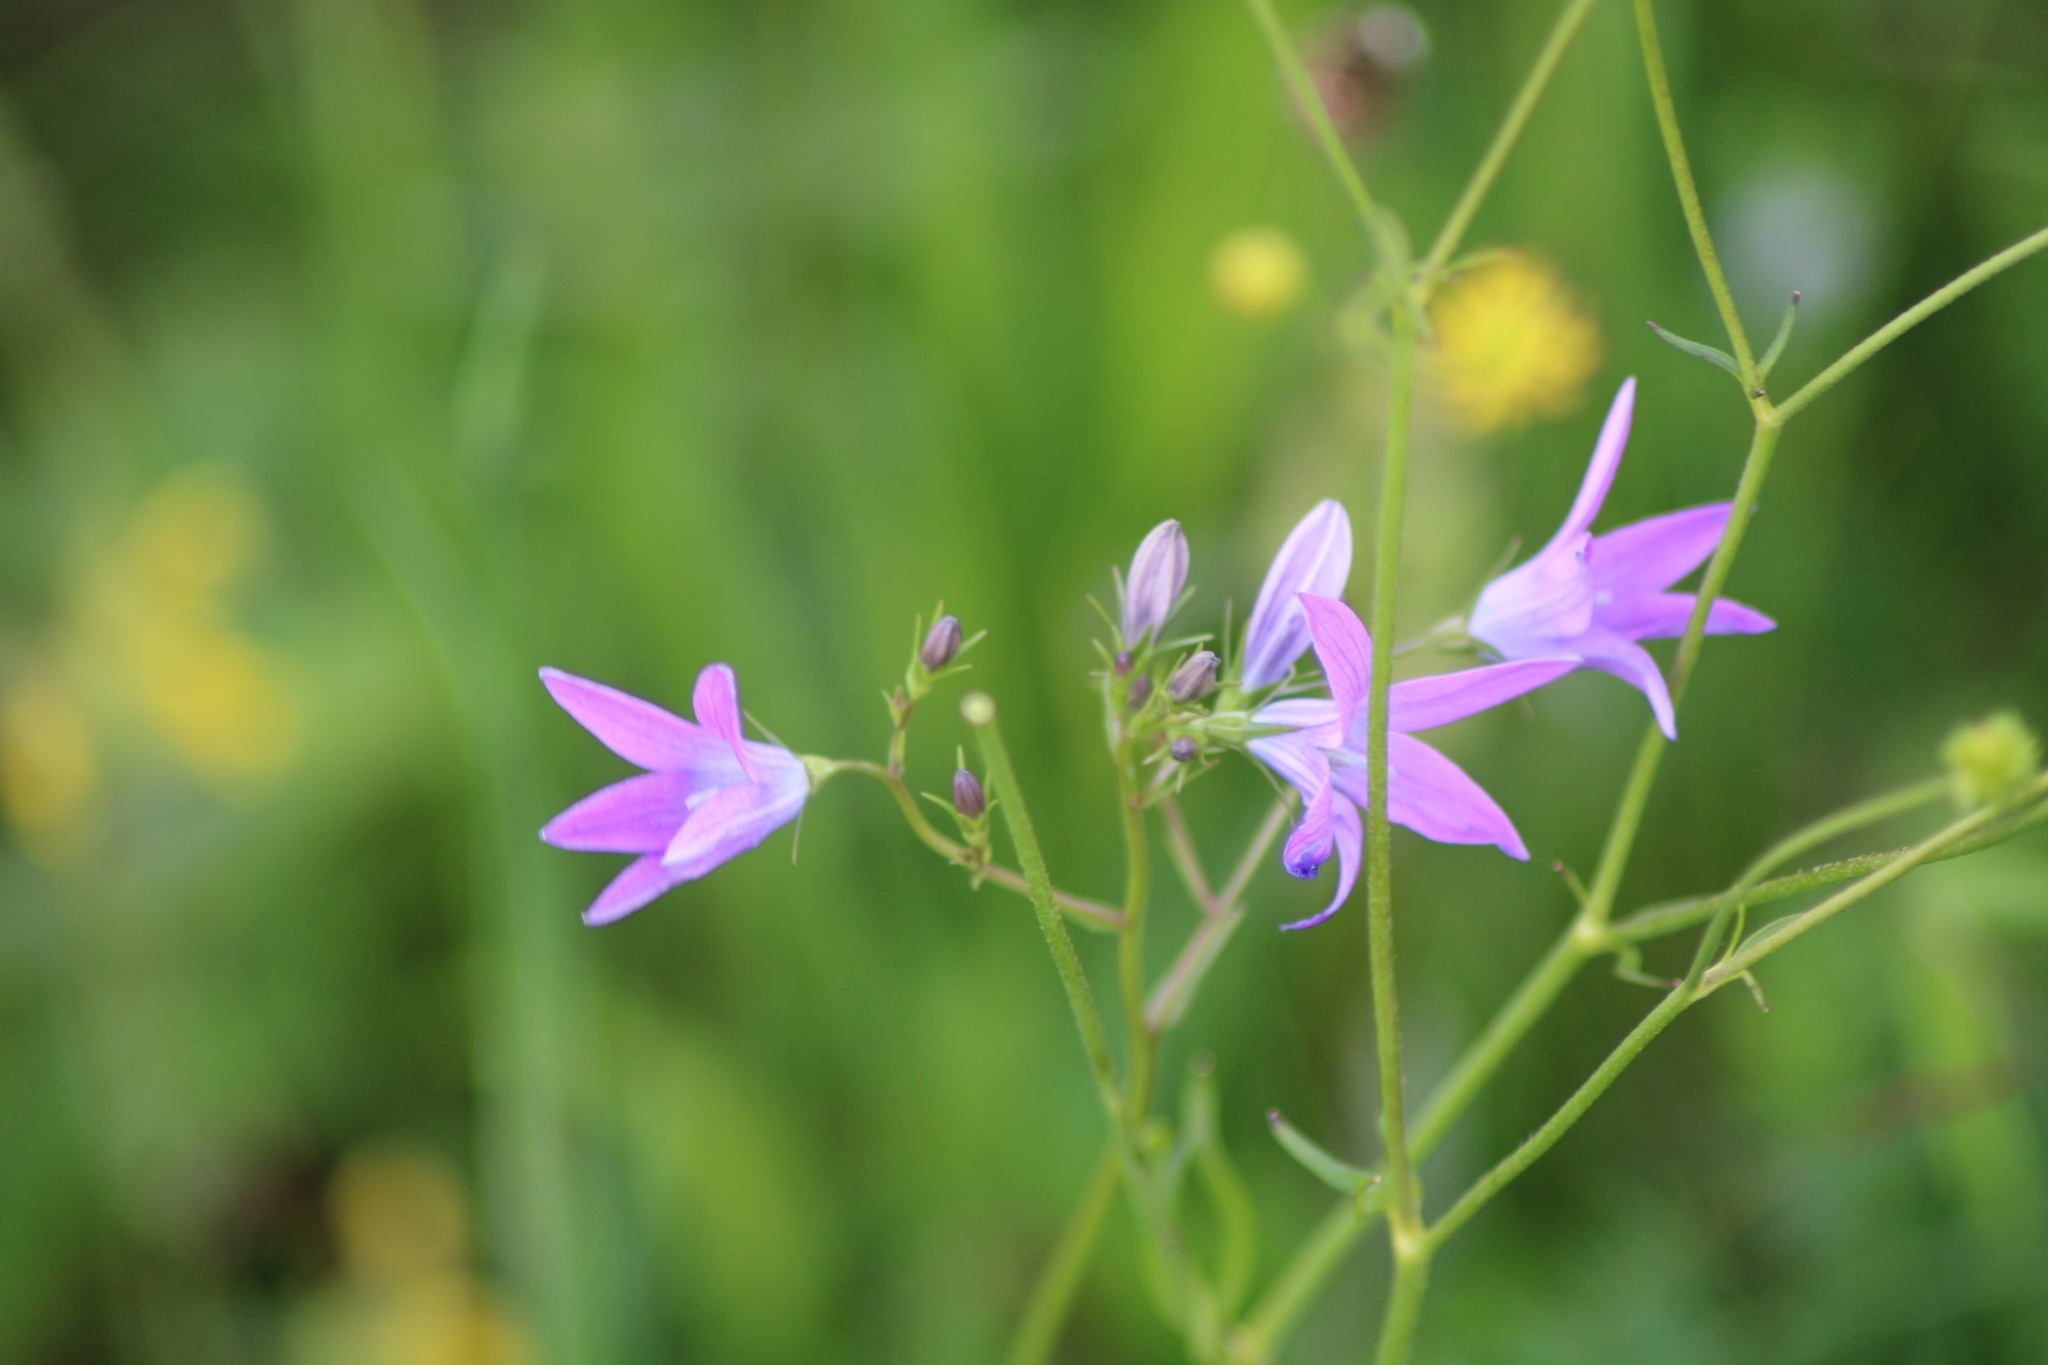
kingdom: Plantae
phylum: Tracheophyta
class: Magnoliopsida
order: Asterales
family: Campanulaceae
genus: Campanula
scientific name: Campanula patula
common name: Spreading bellflower
